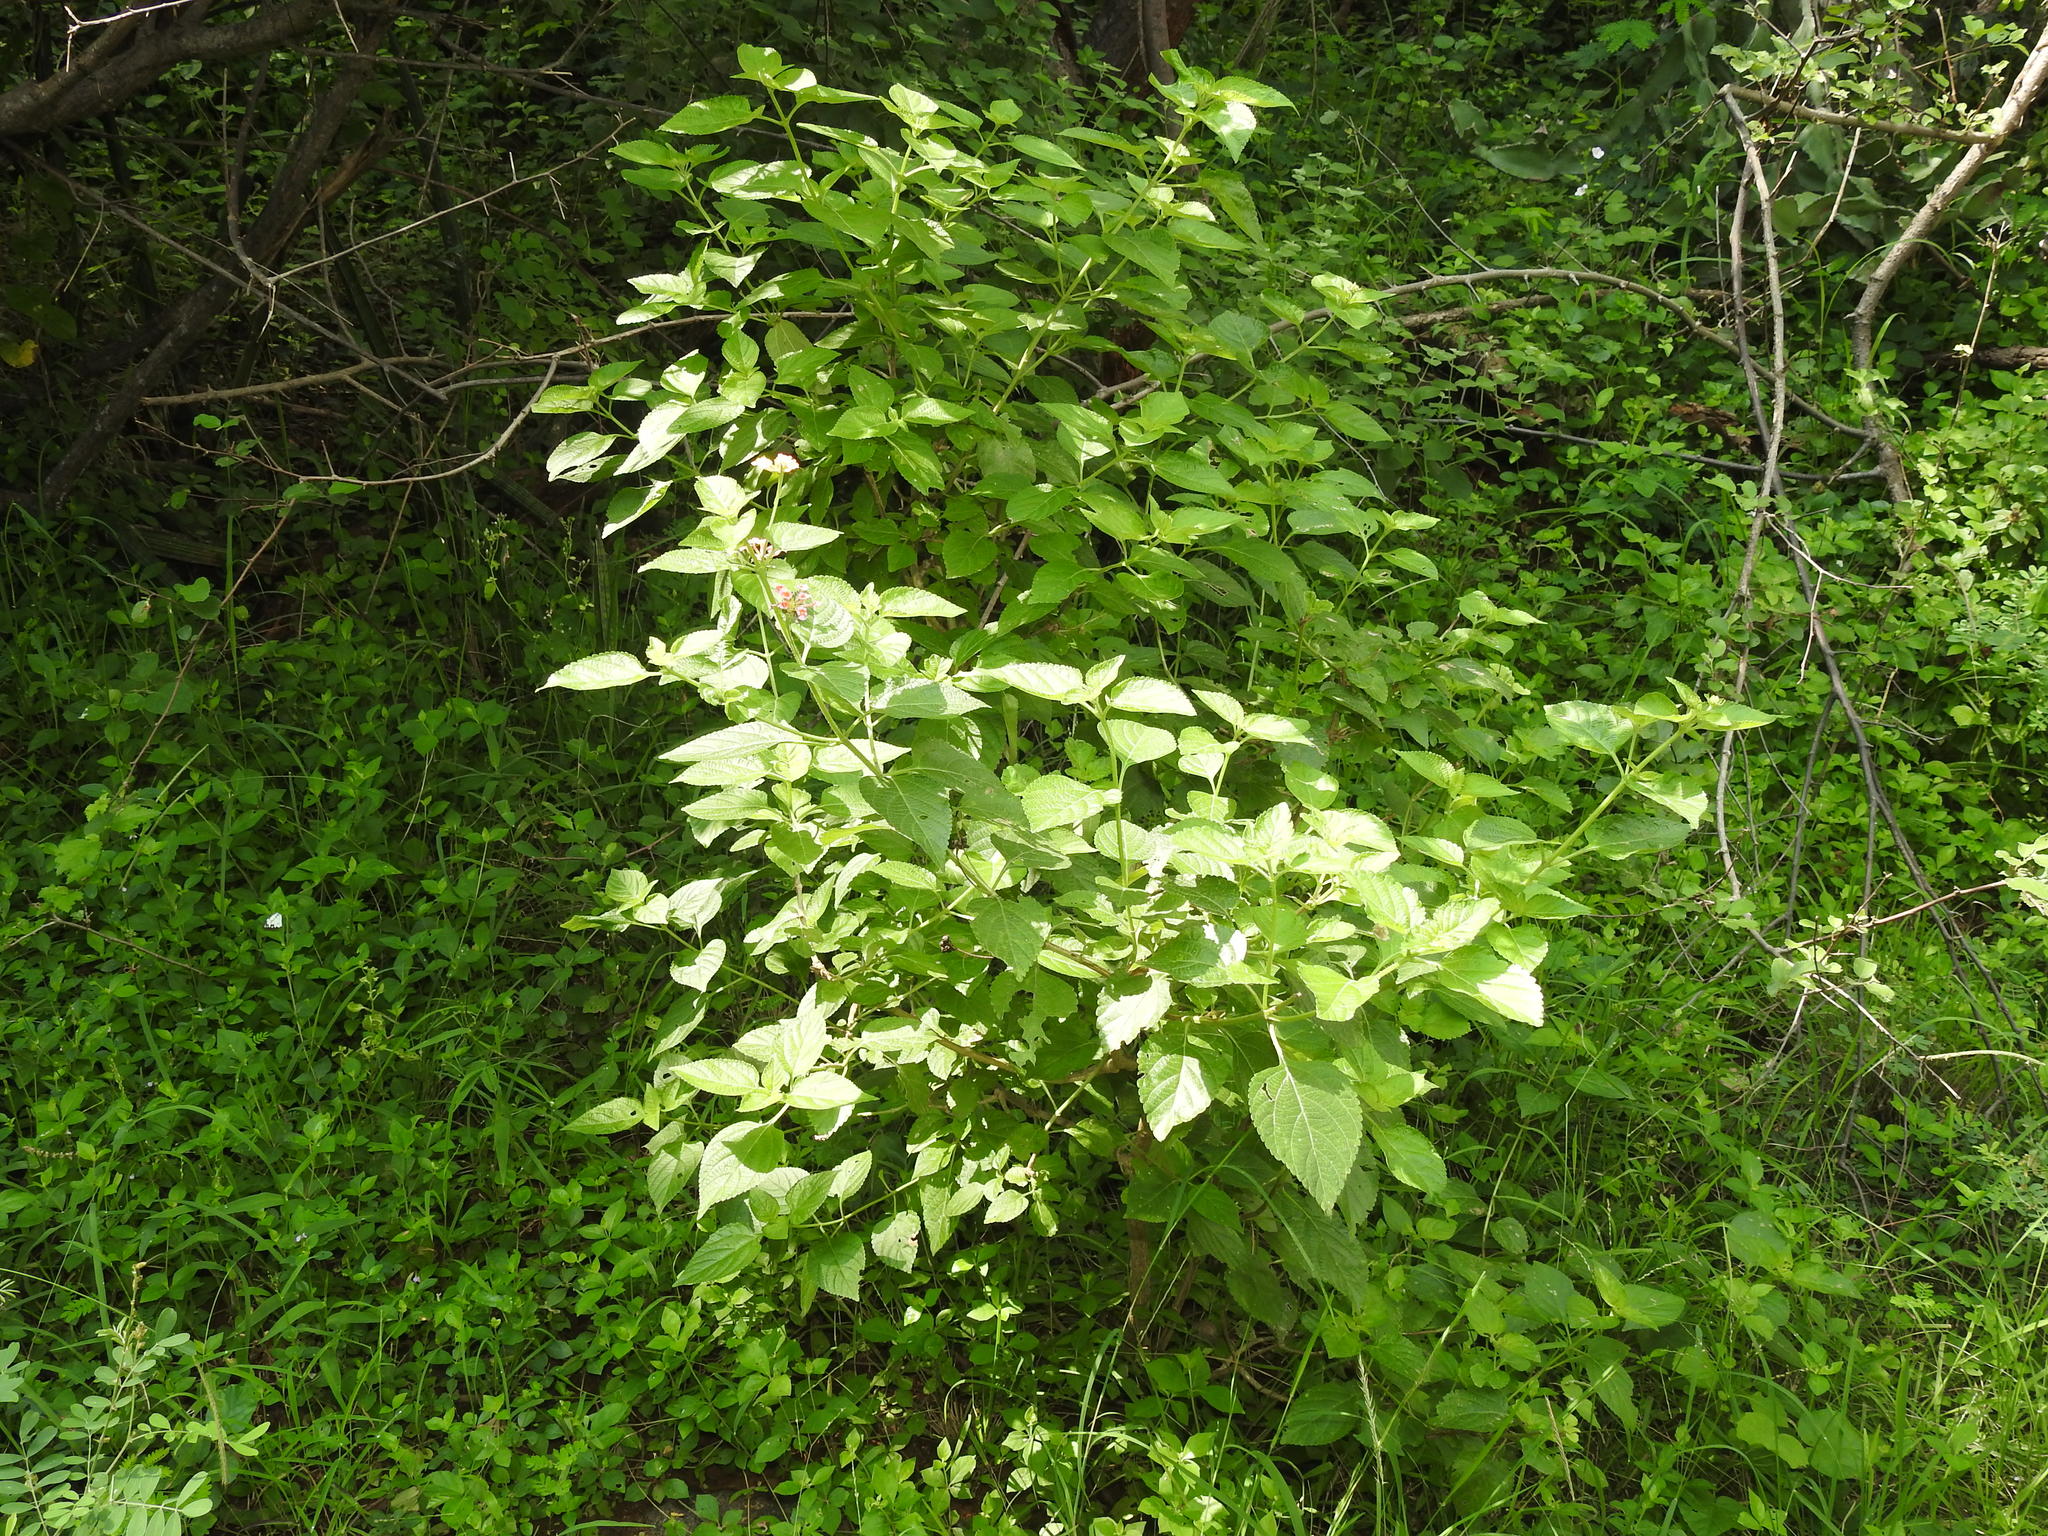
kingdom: Plantae
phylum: Tracheophyta
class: Magnoliopsida
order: Lamiales
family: Verbenaceae
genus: Lantana
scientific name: Lantana camara
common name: Lantana
